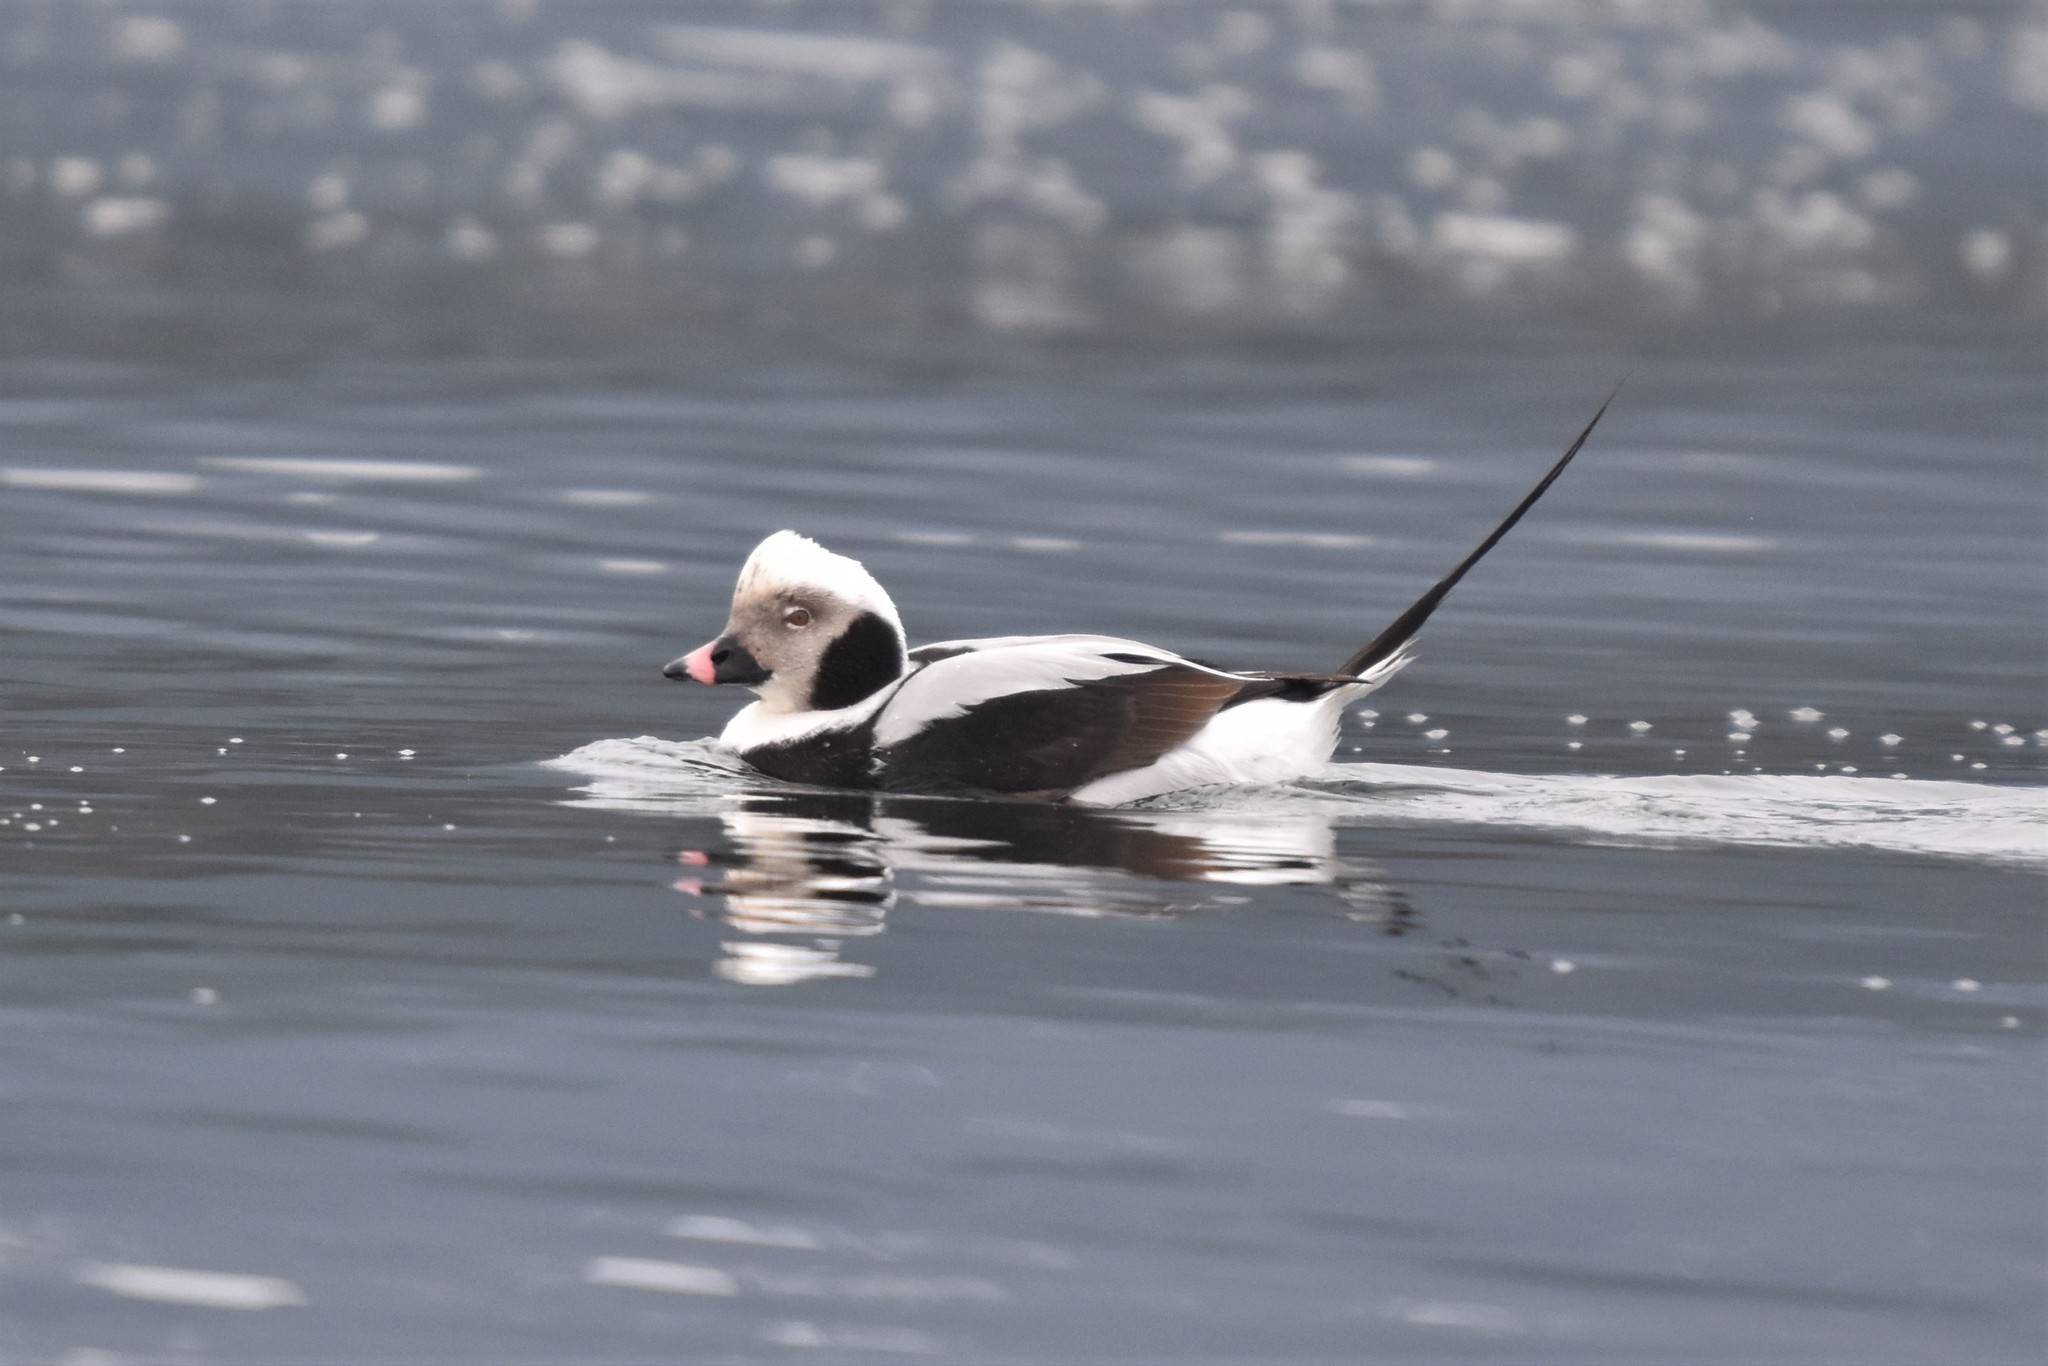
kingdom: Animalia
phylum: Chordata
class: Aves
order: Anseriformes
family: Anatidae
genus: Clangula
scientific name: Clangula hyemalis
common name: Long-tailed duck
